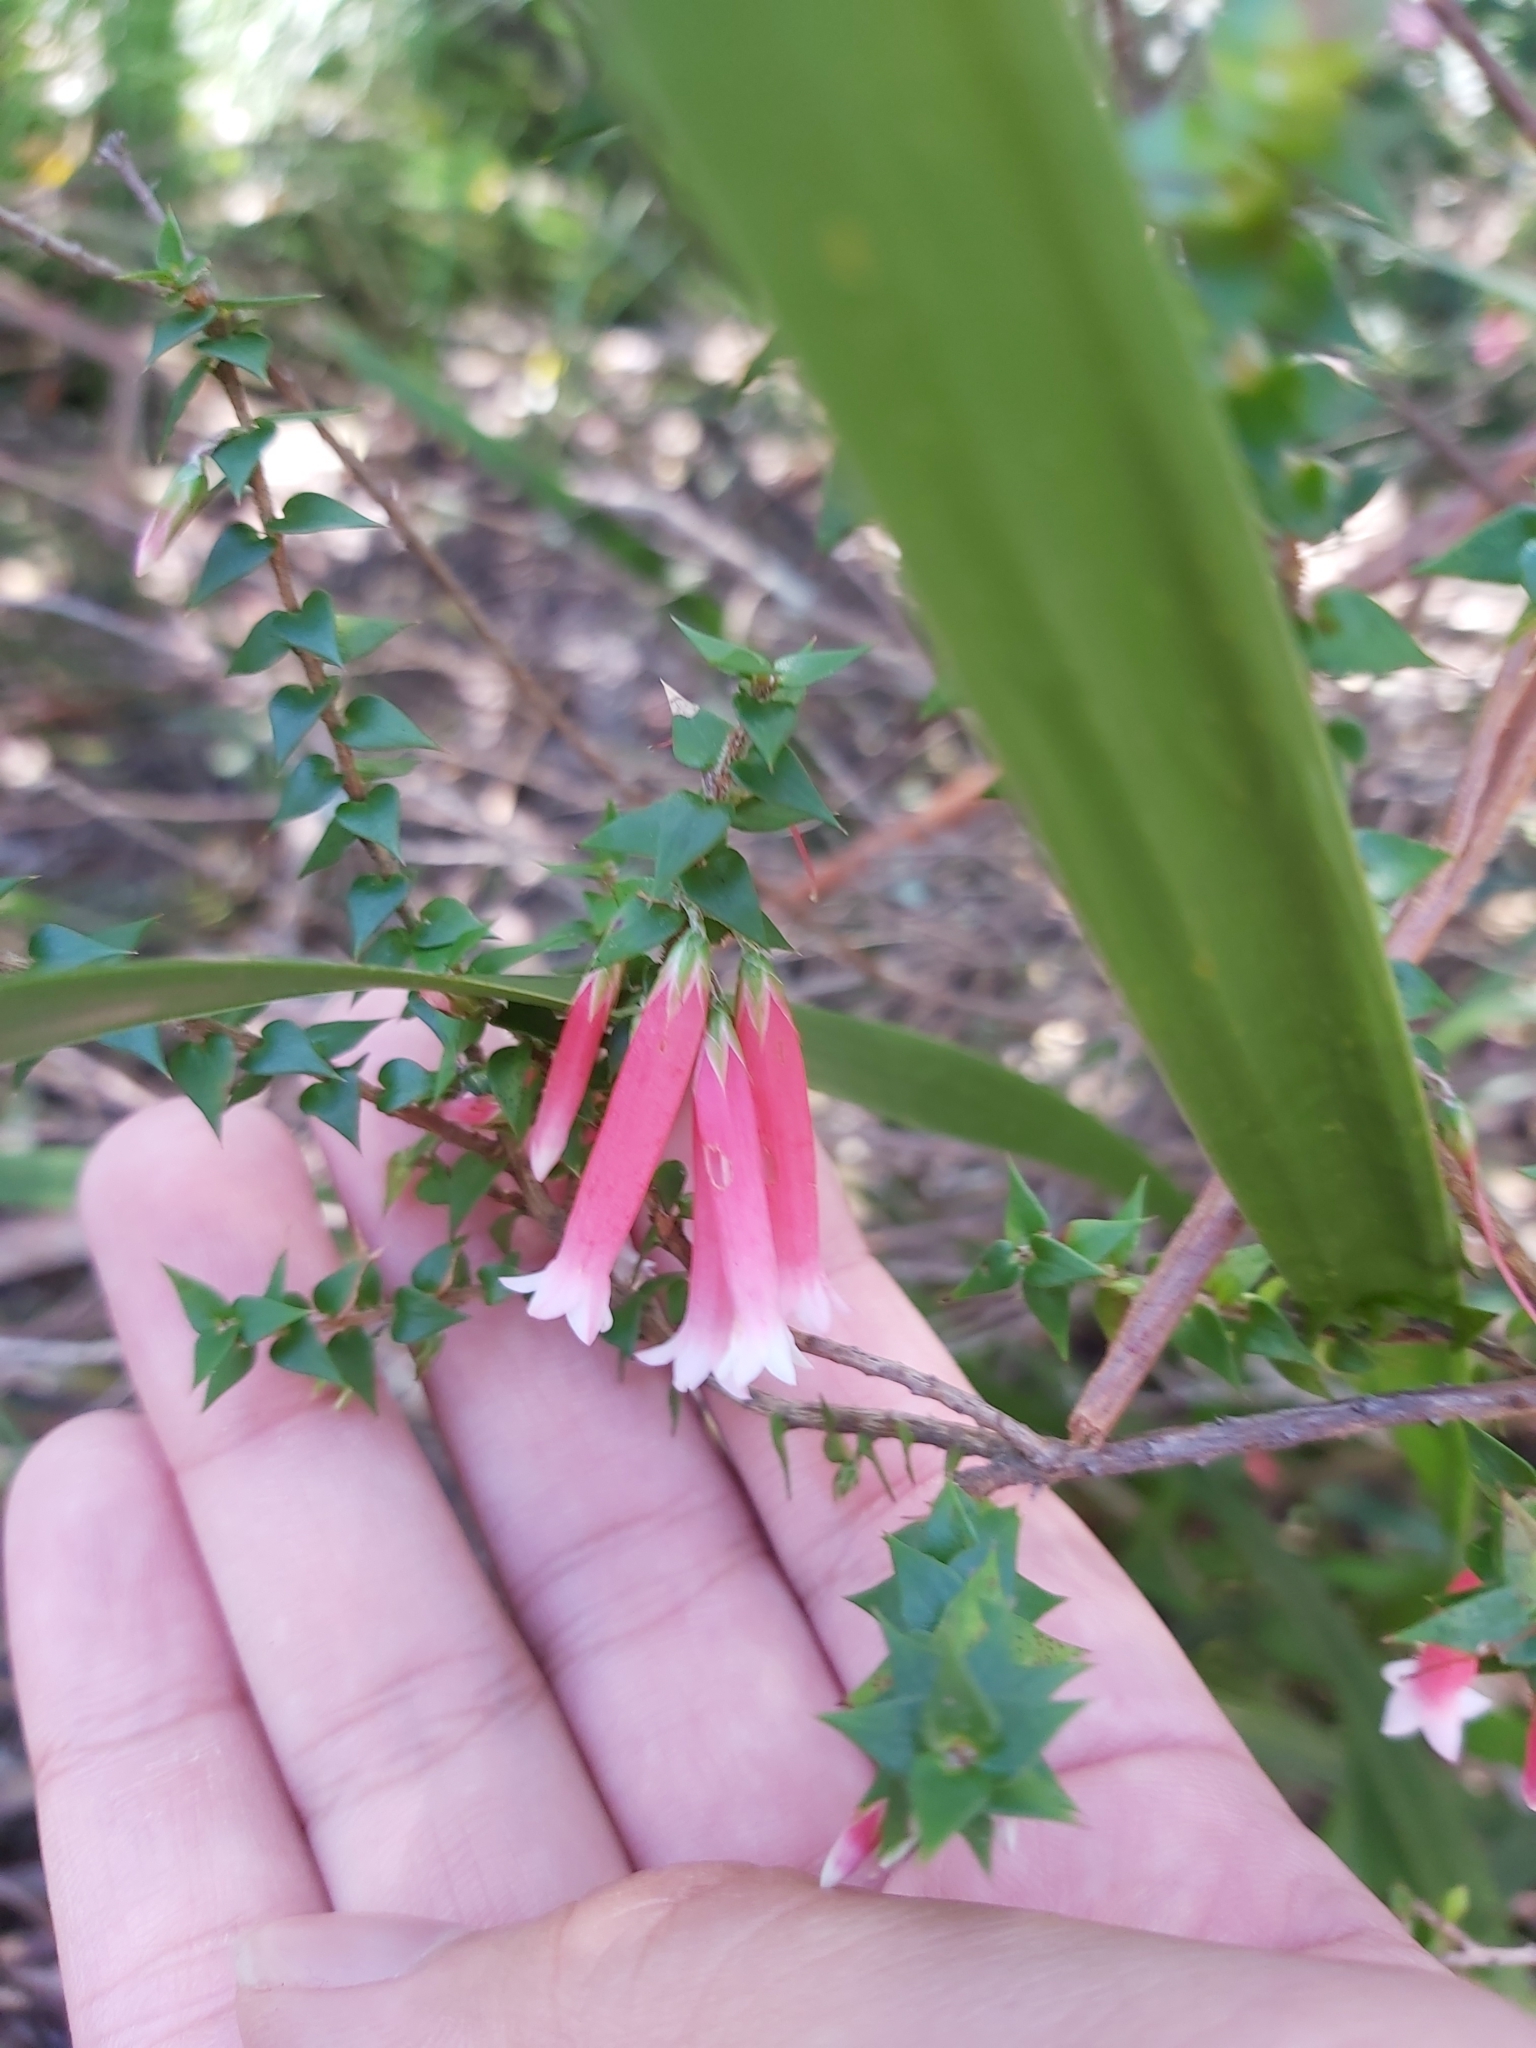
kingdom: Plantae
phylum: Tracheophyta
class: Magnoliopsida
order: Ericales
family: Ericaceae
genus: Epacris
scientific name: Epacris longiflora
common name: Fuchsia-heath
